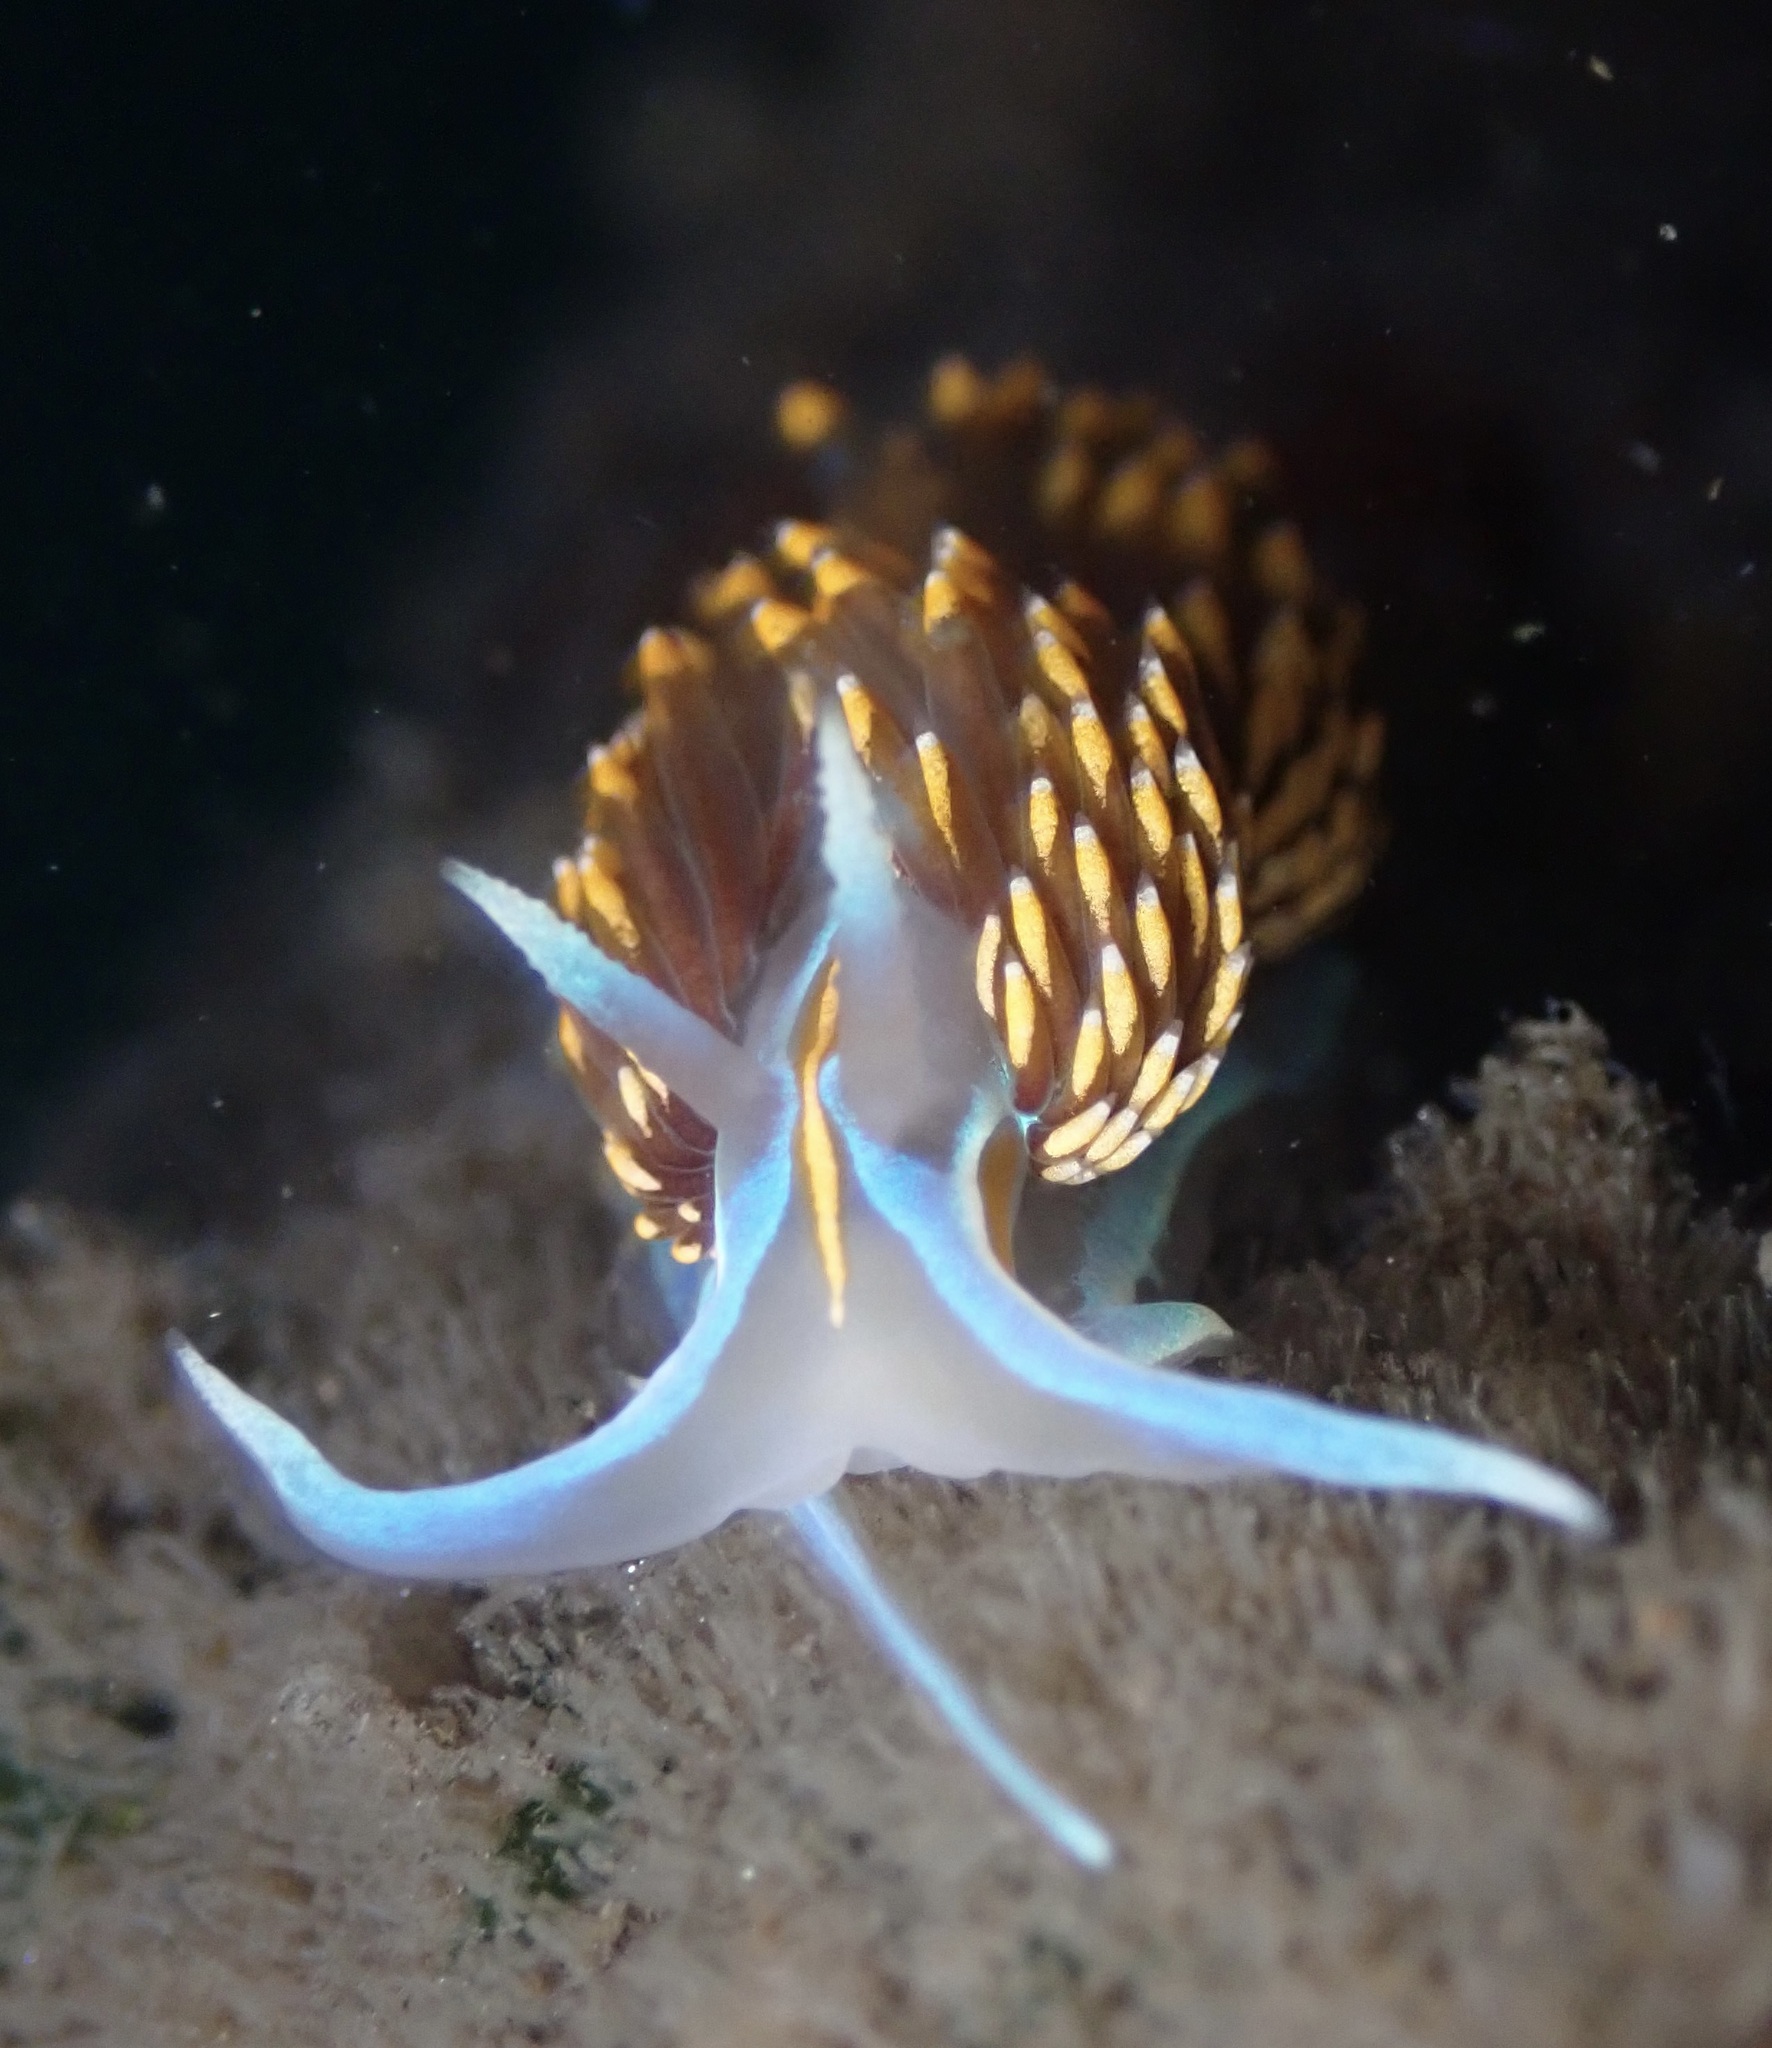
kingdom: Animalia
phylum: Mollusca
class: Gastropoda
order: Nudibranchia
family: Myrrhinidae
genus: Hermissenda
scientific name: Hermissenda opalescens
